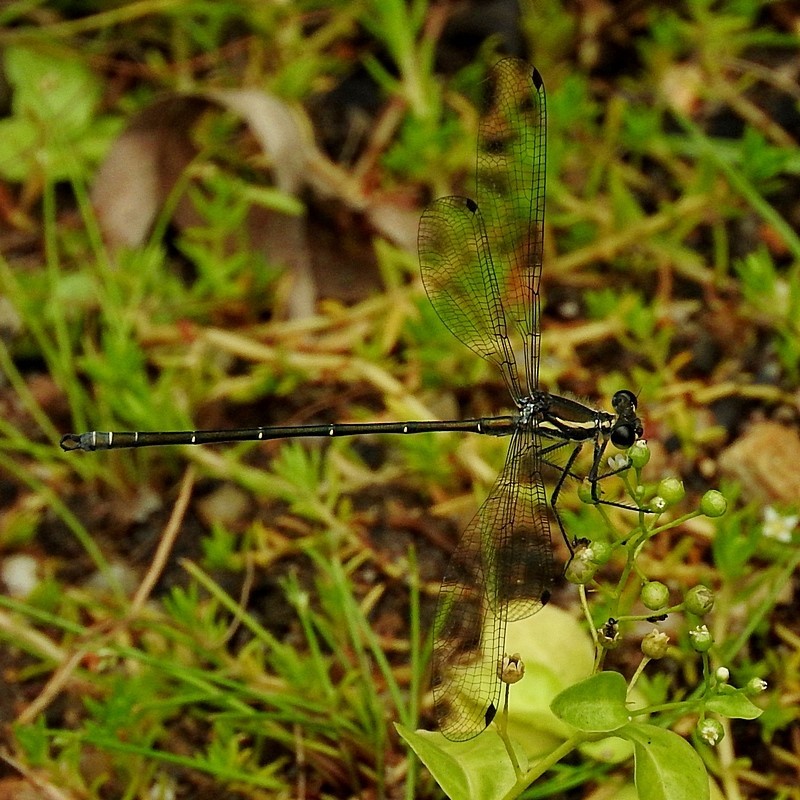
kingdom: Animalia
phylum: Arthropoda
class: Insecta
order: Odonata
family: Argiolestidae
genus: Austroargiolestes
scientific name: Austroargiolestes icteromelas
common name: Common flatwing
